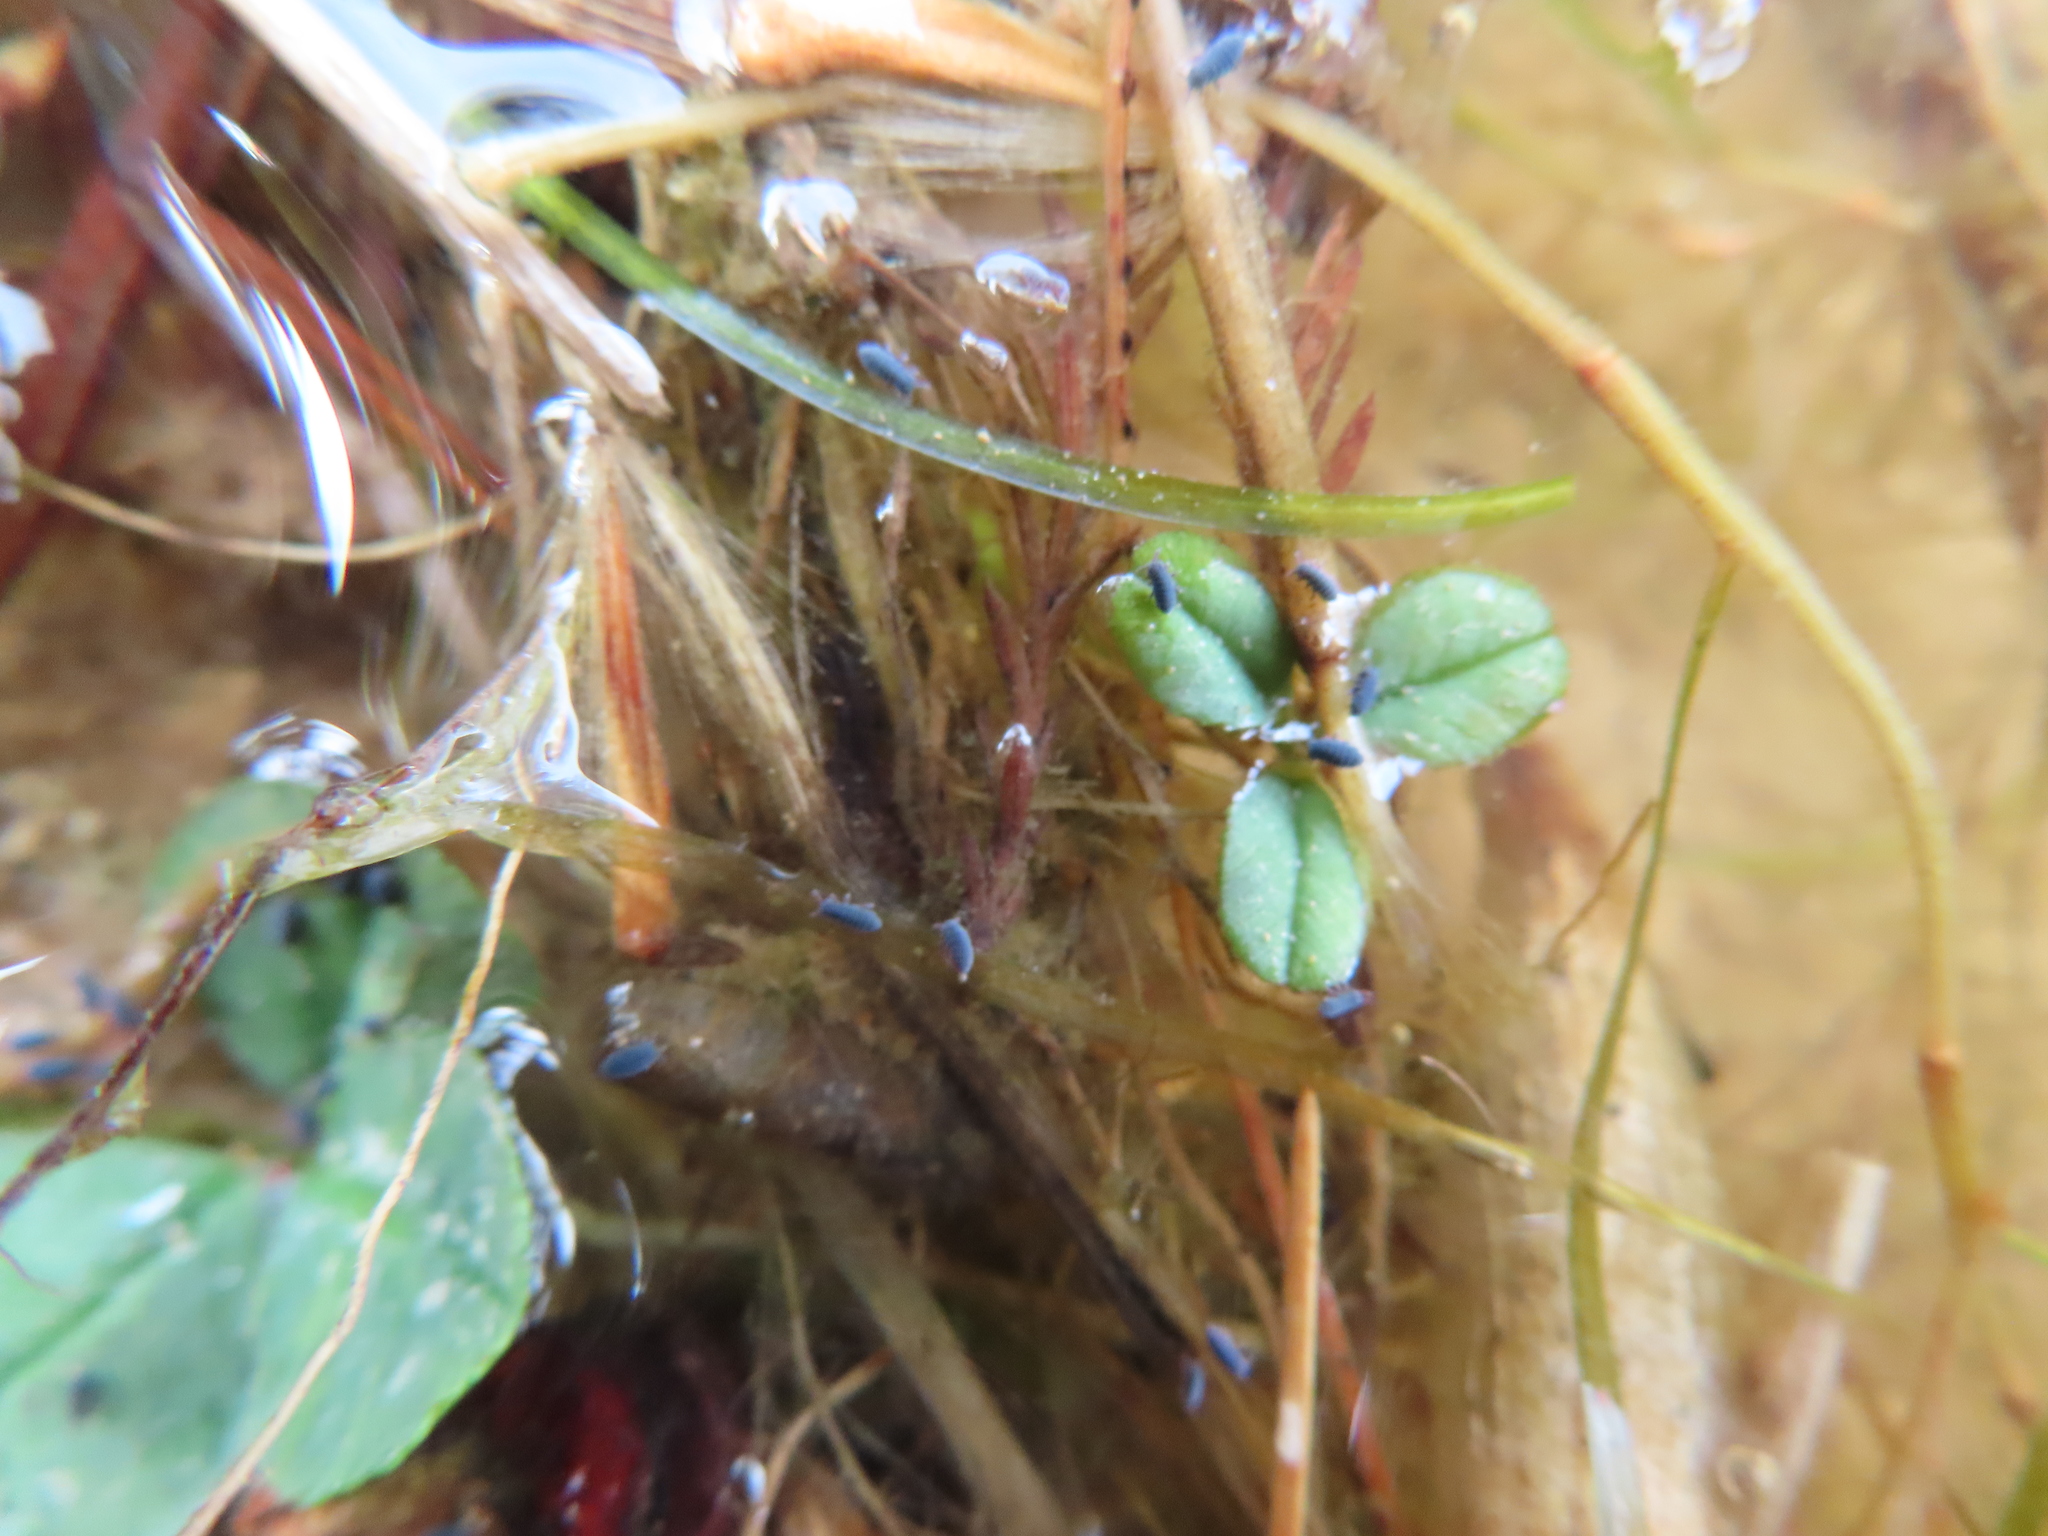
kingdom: Animalia
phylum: Arthropoda
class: Collembola
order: Poduromorpha
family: Poduridae
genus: Podura
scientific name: Podura aquatica
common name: Water springtail
